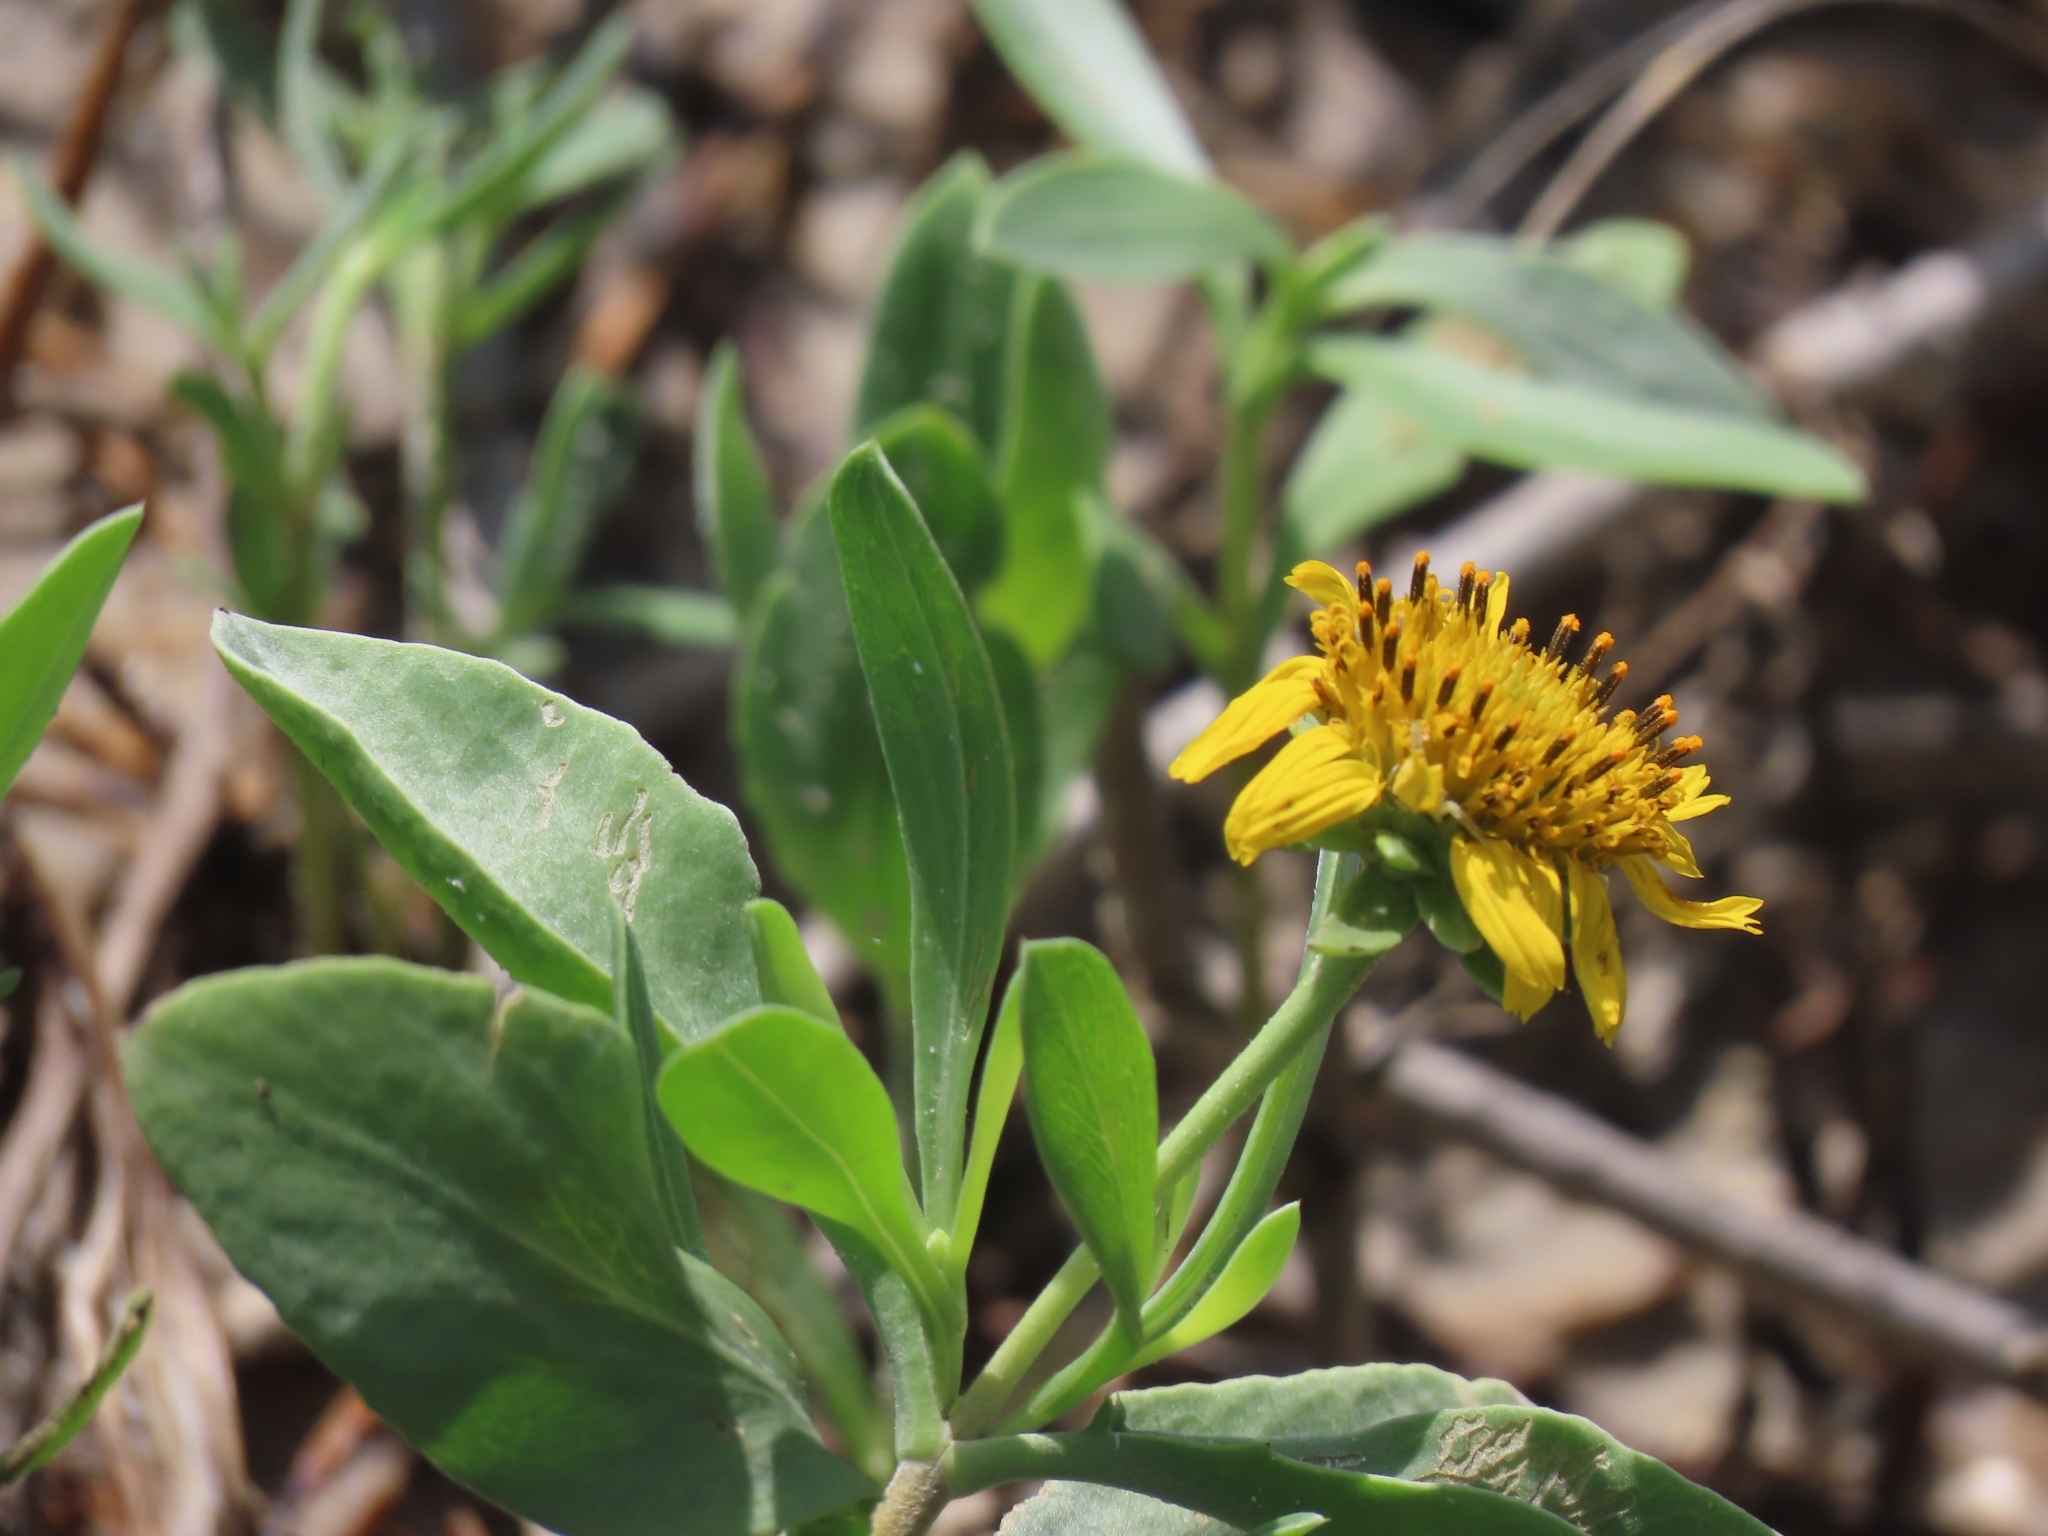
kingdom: Plantae
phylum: Tracheophyta
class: Magnoliopsida
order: Asterales
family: Asteraceae
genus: Borrichia
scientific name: Borrichia frutescens
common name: Sea oxeye
